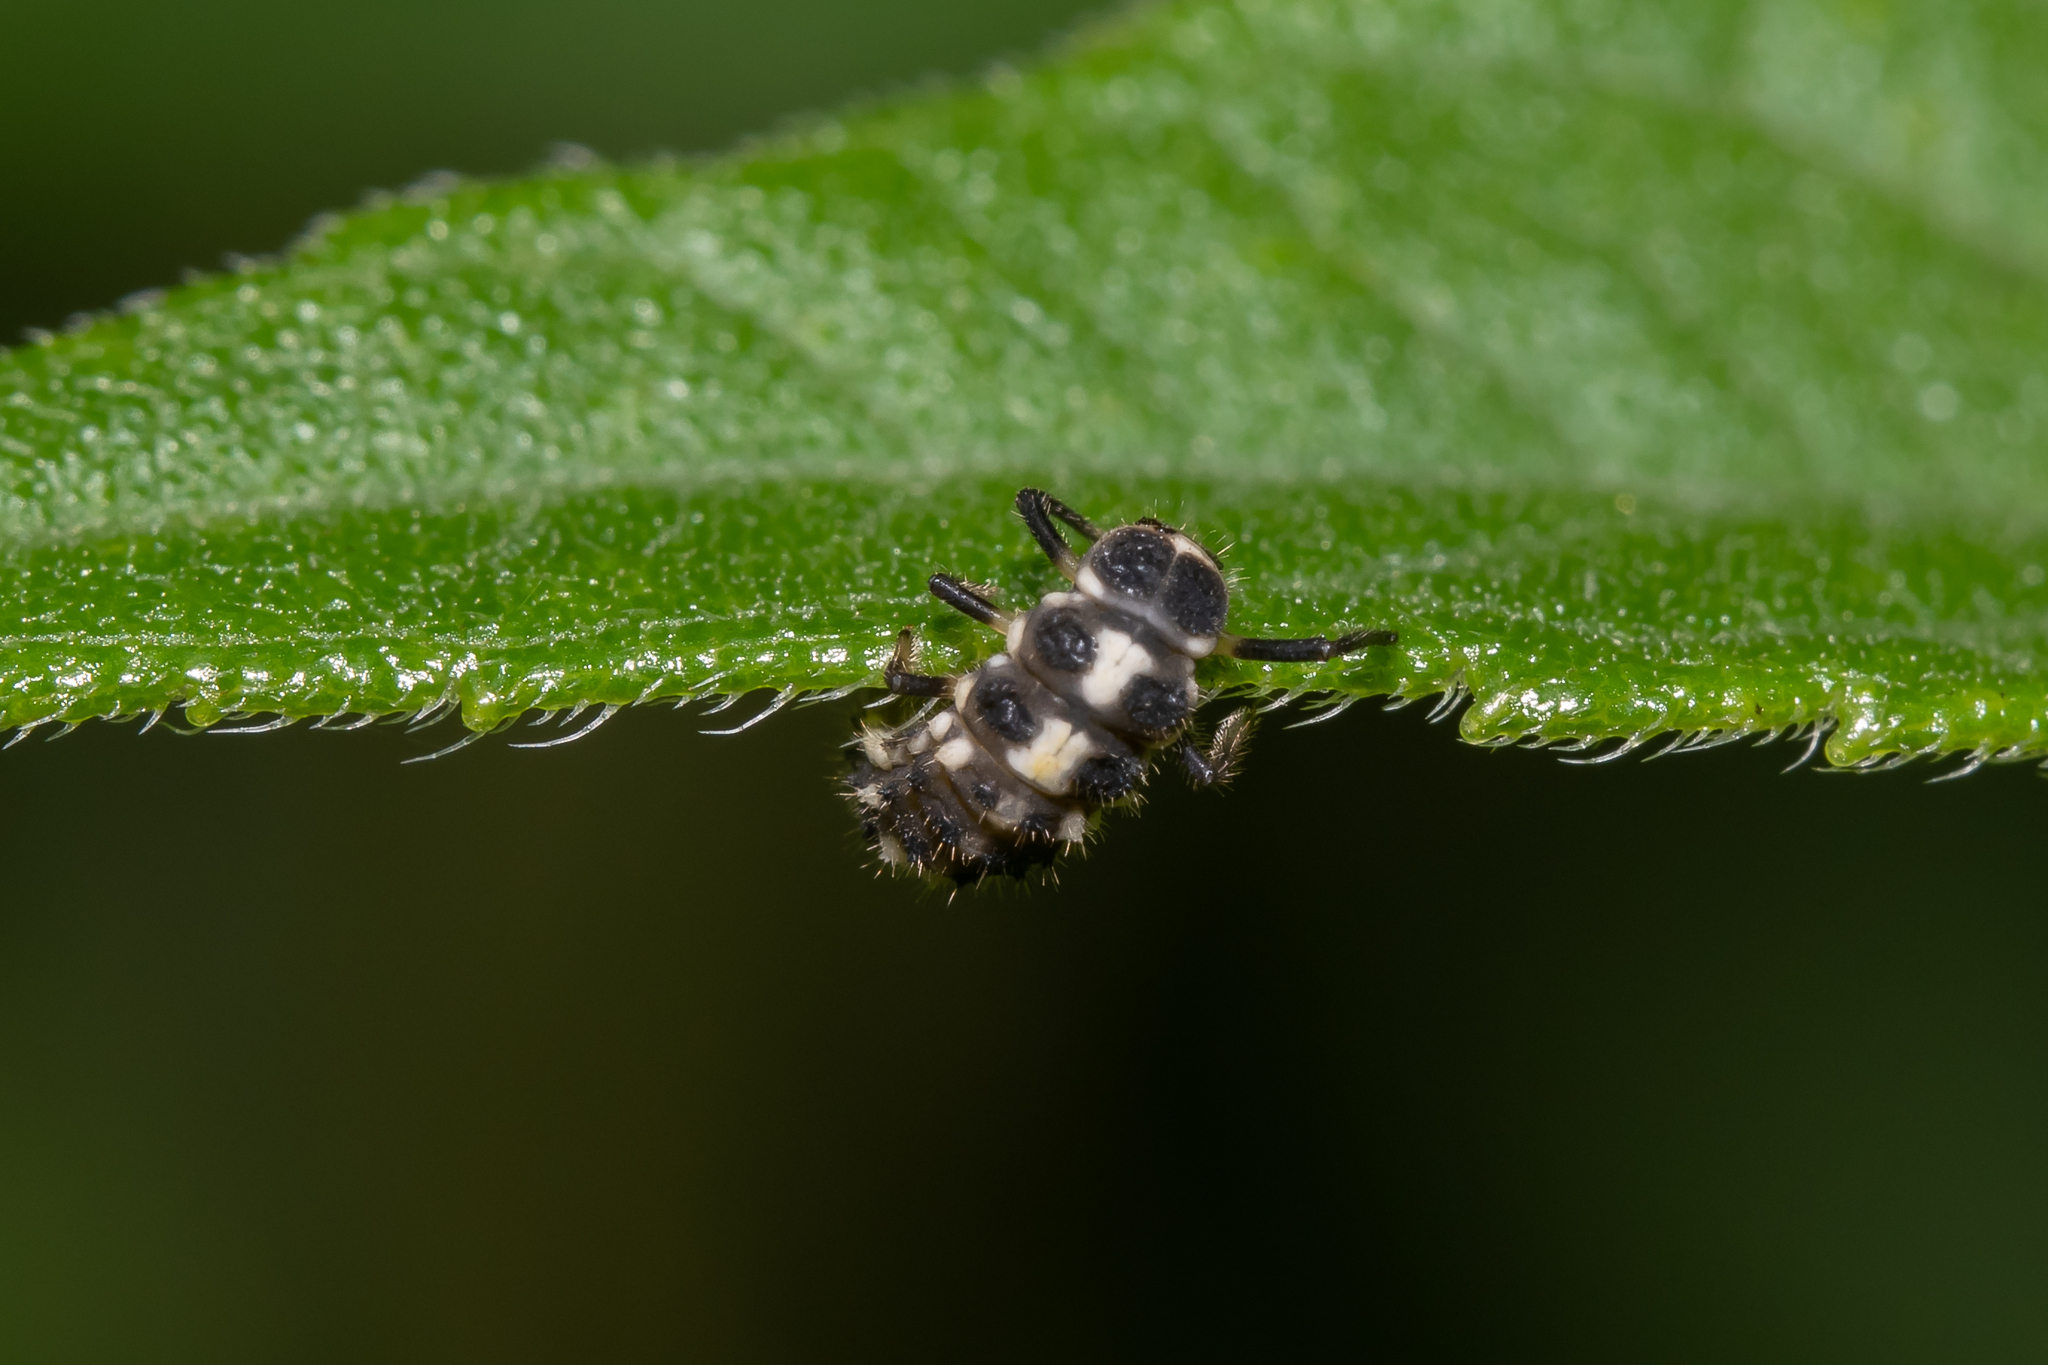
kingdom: Animalia
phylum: Arthropoda
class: Insecta
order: Coleoptera
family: Coccinellidae
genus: Propylaea
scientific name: Propylaea quatuordecimpunctata
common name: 14-spotted ladybird beetle
